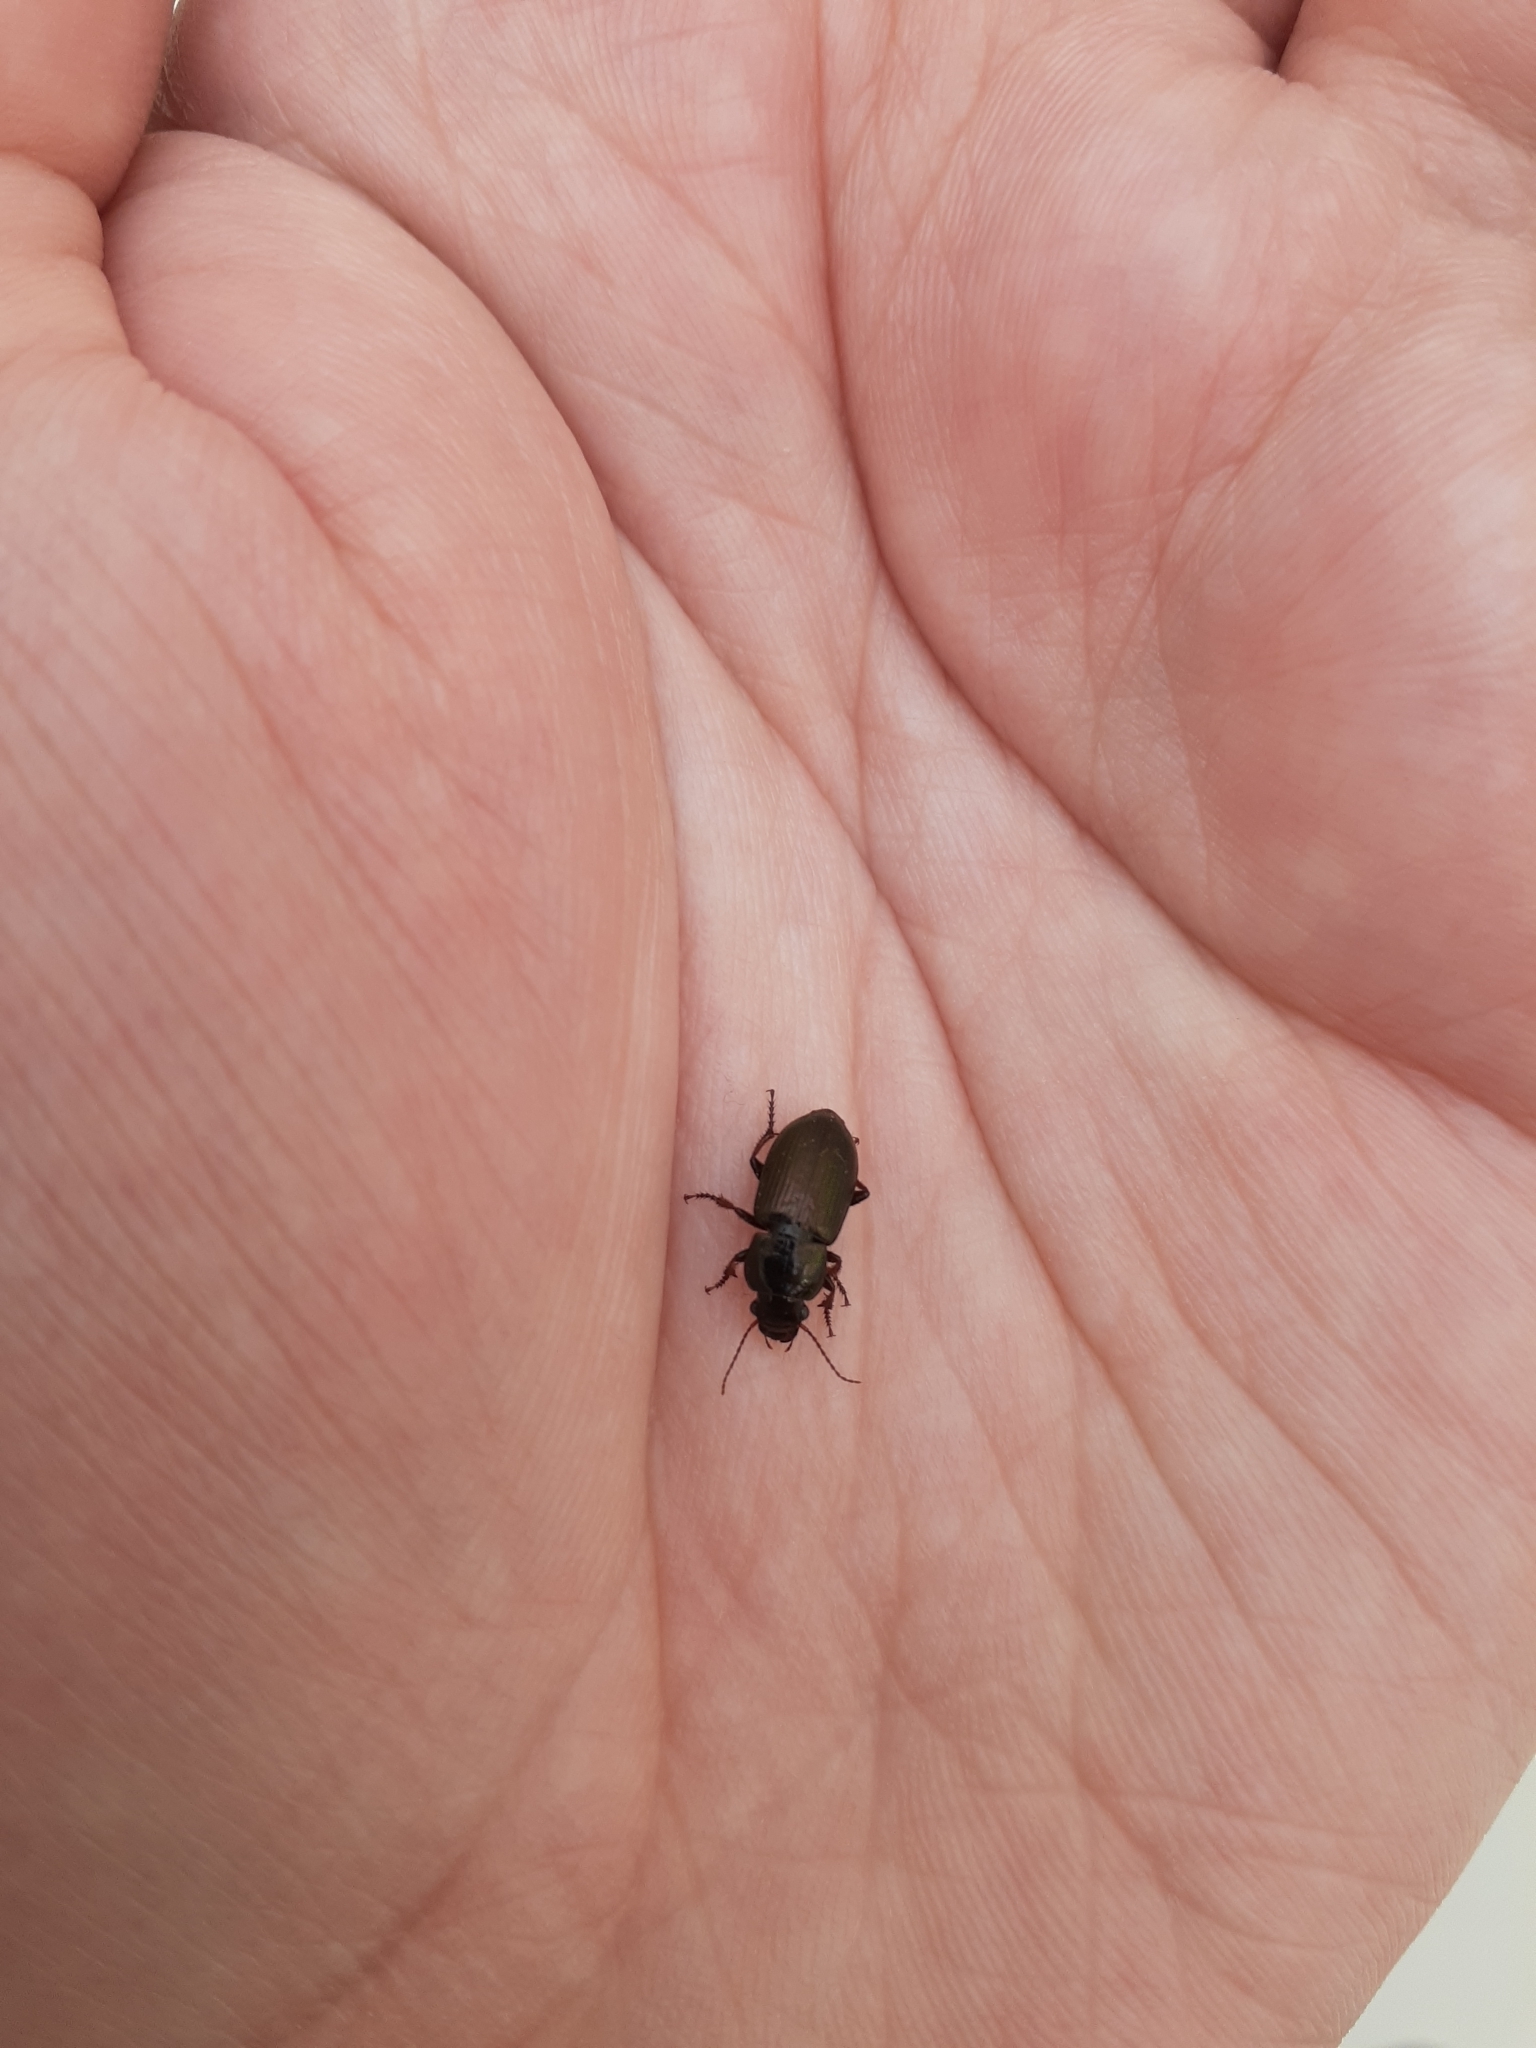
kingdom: Animalia
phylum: Arthropoda
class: Insecta
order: Coleoptera
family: Carabidae
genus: Harpalus
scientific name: Harpalus affinis
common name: Polychrome harp ground beetle
